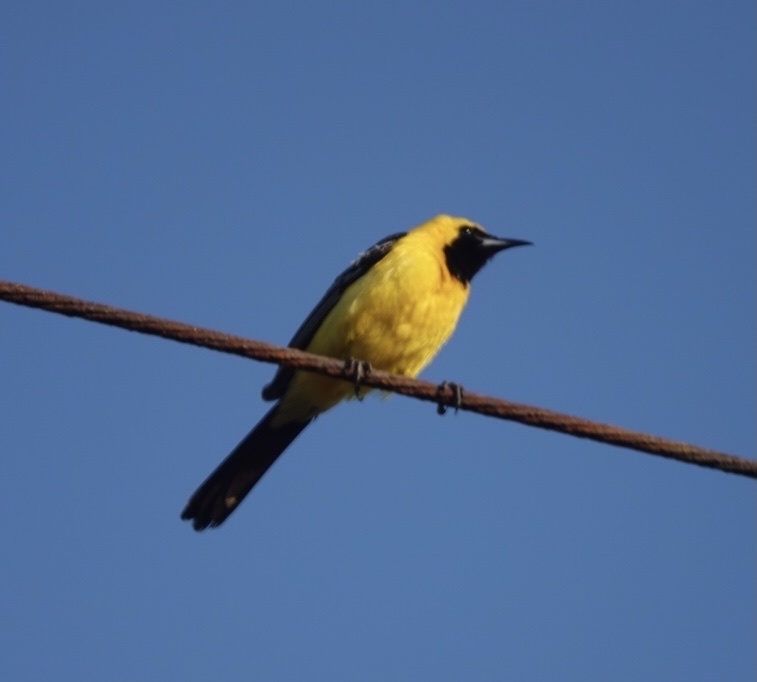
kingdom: Animalia
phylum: Chordata
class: Aves
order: Passeriformes
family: Icteridae
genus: Icterus
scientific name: Icterus cucullatus
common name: Hooded oriole
